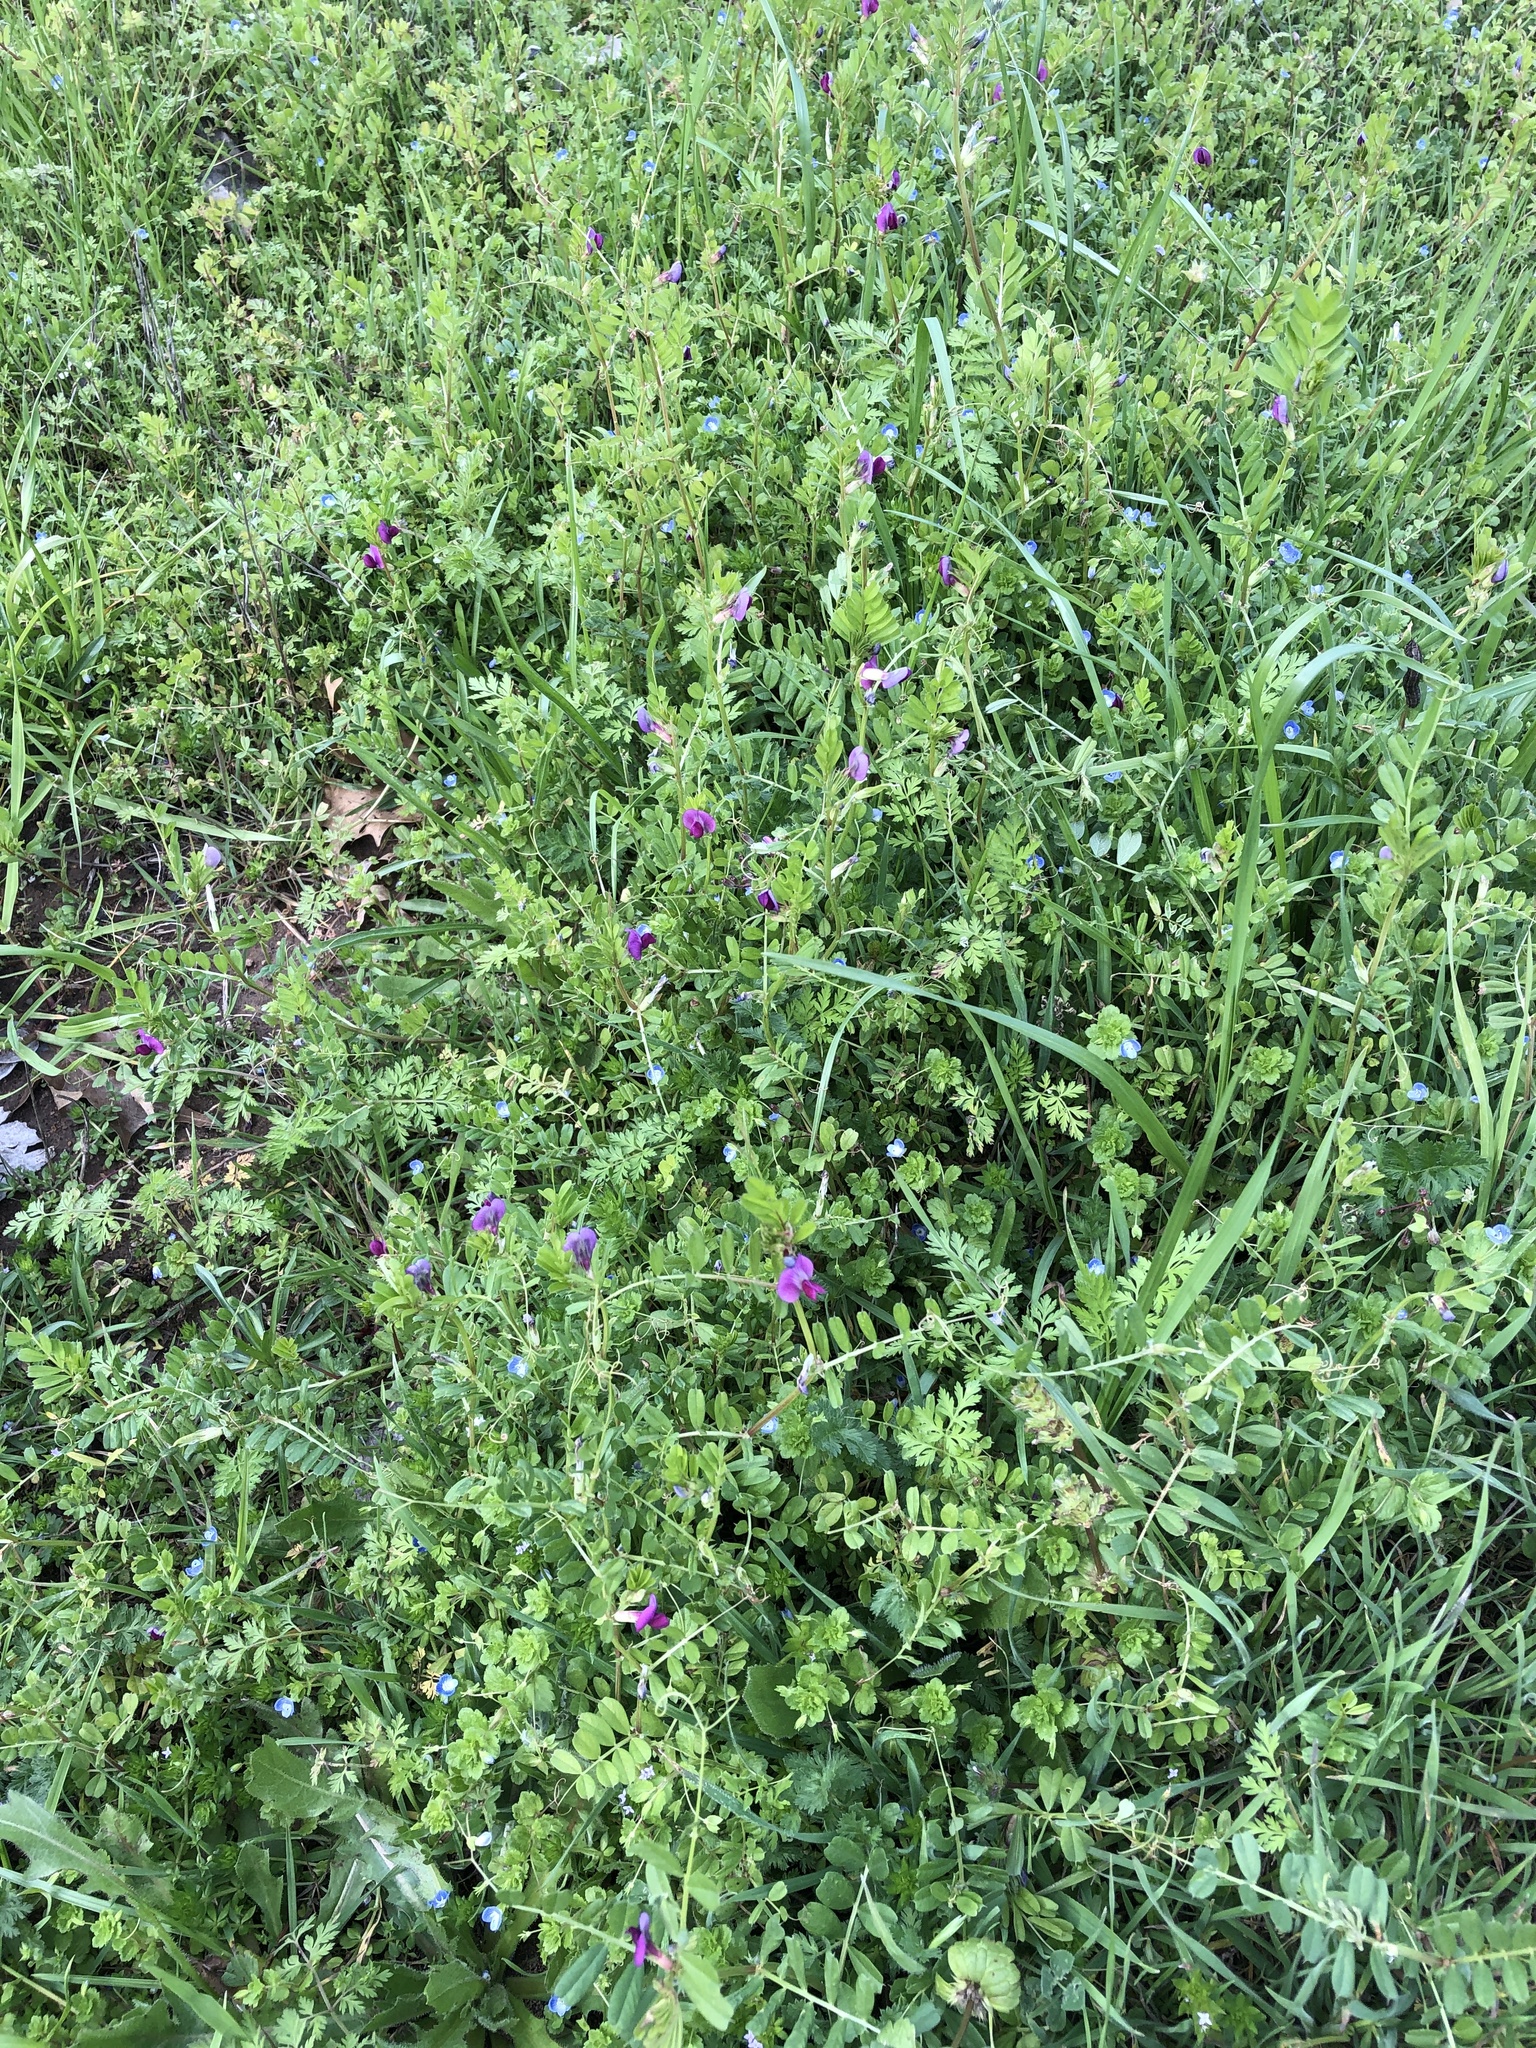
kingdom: Plantae
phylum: Tracheophyta
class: Magnoliopsida
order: Fabales
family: Fabaceae
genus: Vicia
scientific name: Vicia sativa
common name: Garden vetch
